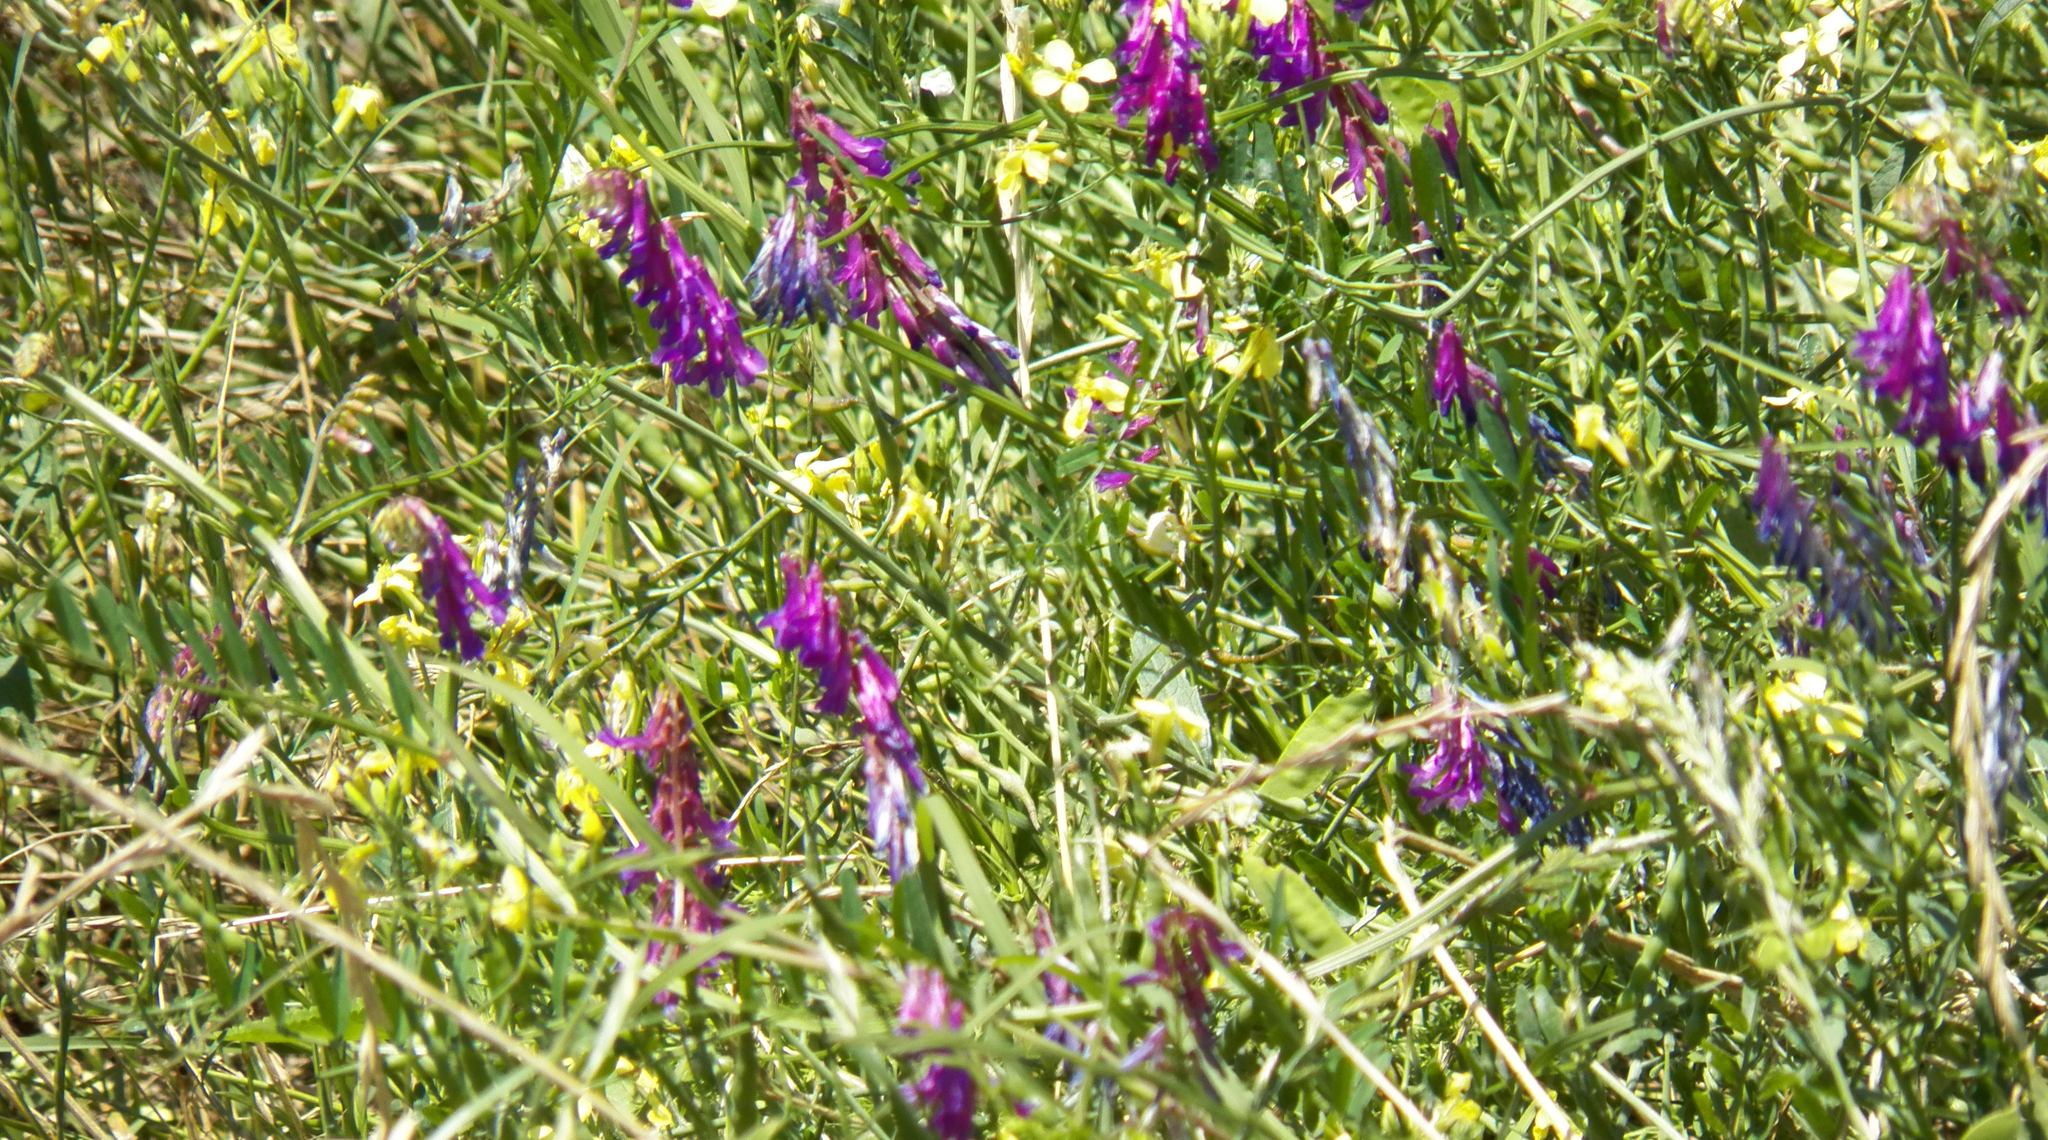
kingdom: Plantae
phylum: Tracheophyta
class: Magnoliopsida
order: Fabales
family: Fabaceae
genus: Vicia
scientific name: Vicia villosa
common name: Fodder vetch
